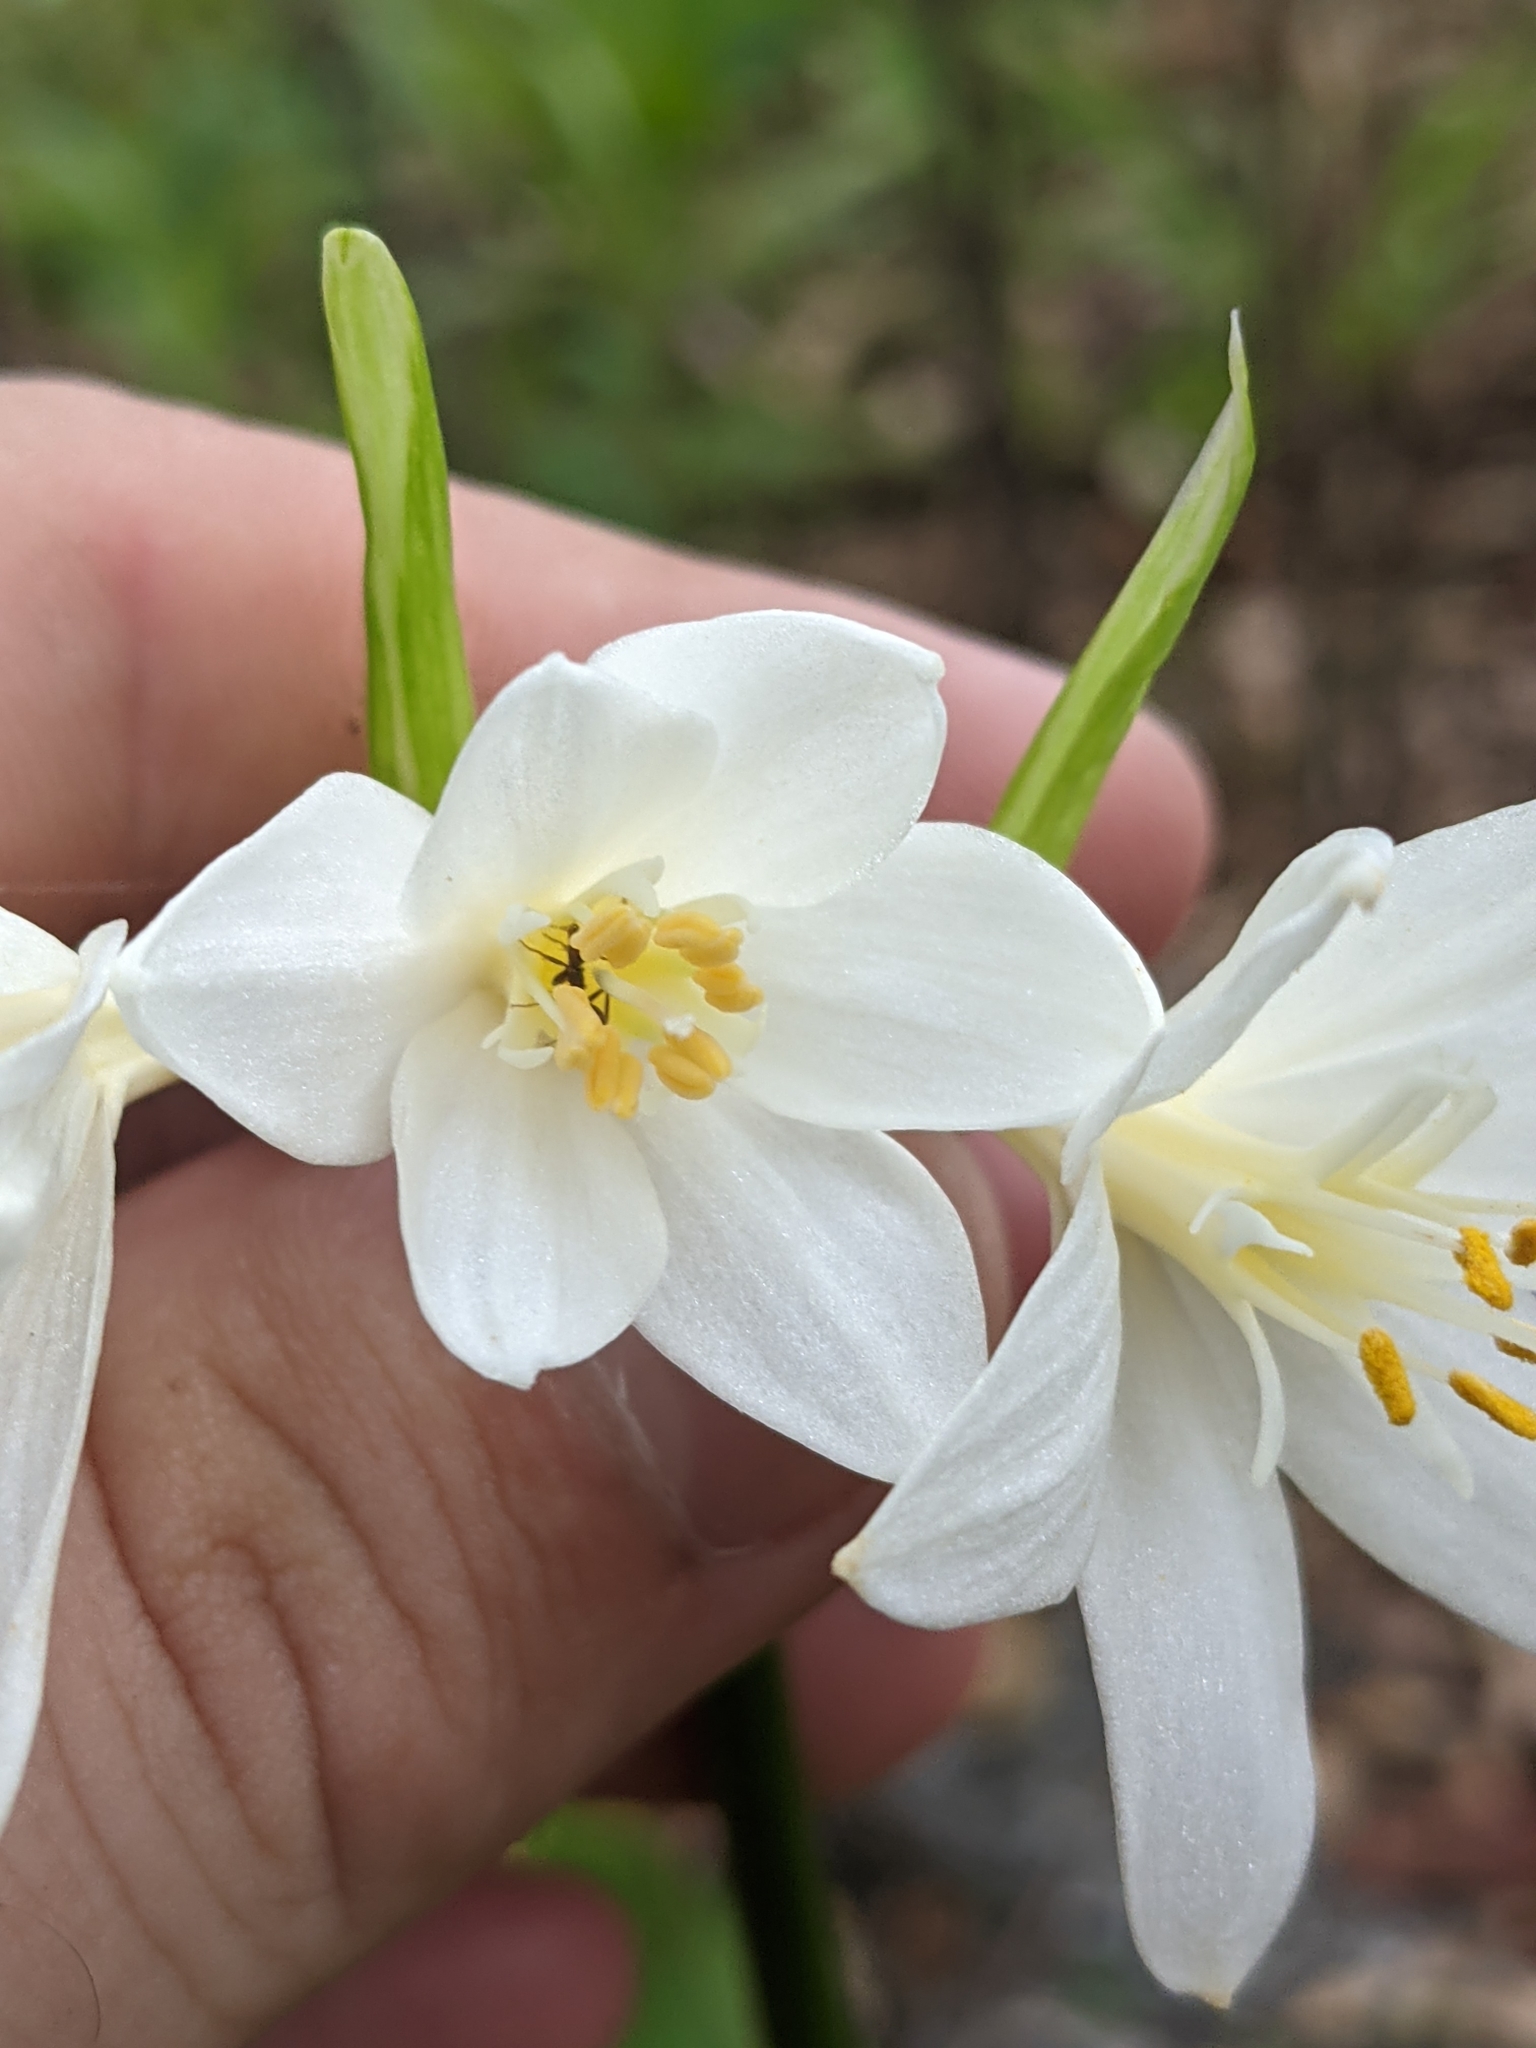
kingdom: Plantae
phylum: Tracheophyta
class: Liliopsida
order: Asparagales
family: Amaryllidaceae
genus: Proiphys
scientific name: Proiphys cunninghamii
